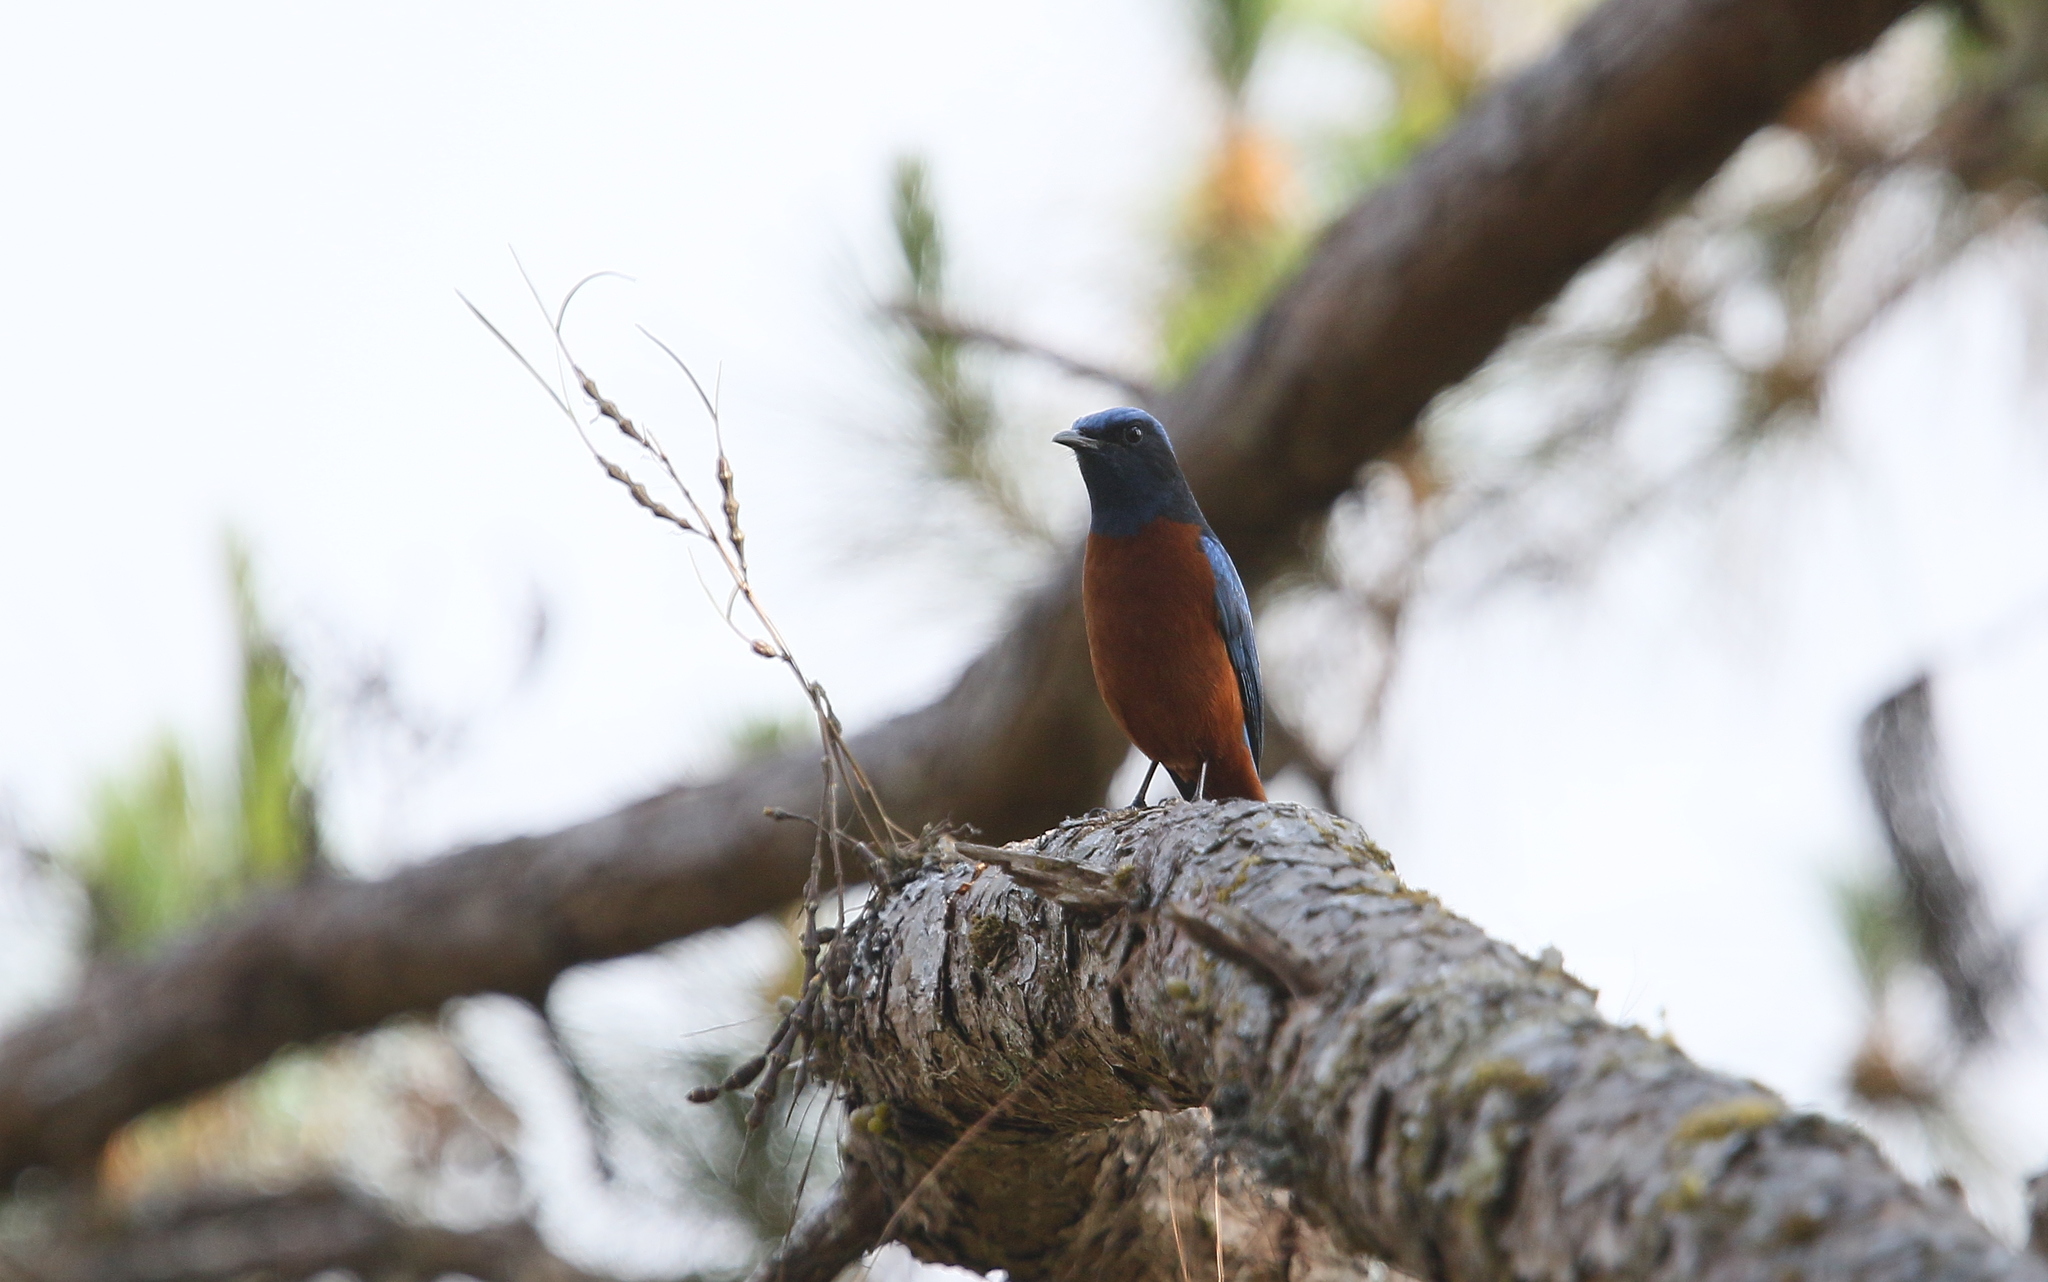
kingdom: Animalia
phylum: Chordata
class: Aves
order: Passeriformes
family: Muscicapidae
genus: Monticola
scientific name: Monticola rufiventris
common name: Chestnut-bellied rock thrush
